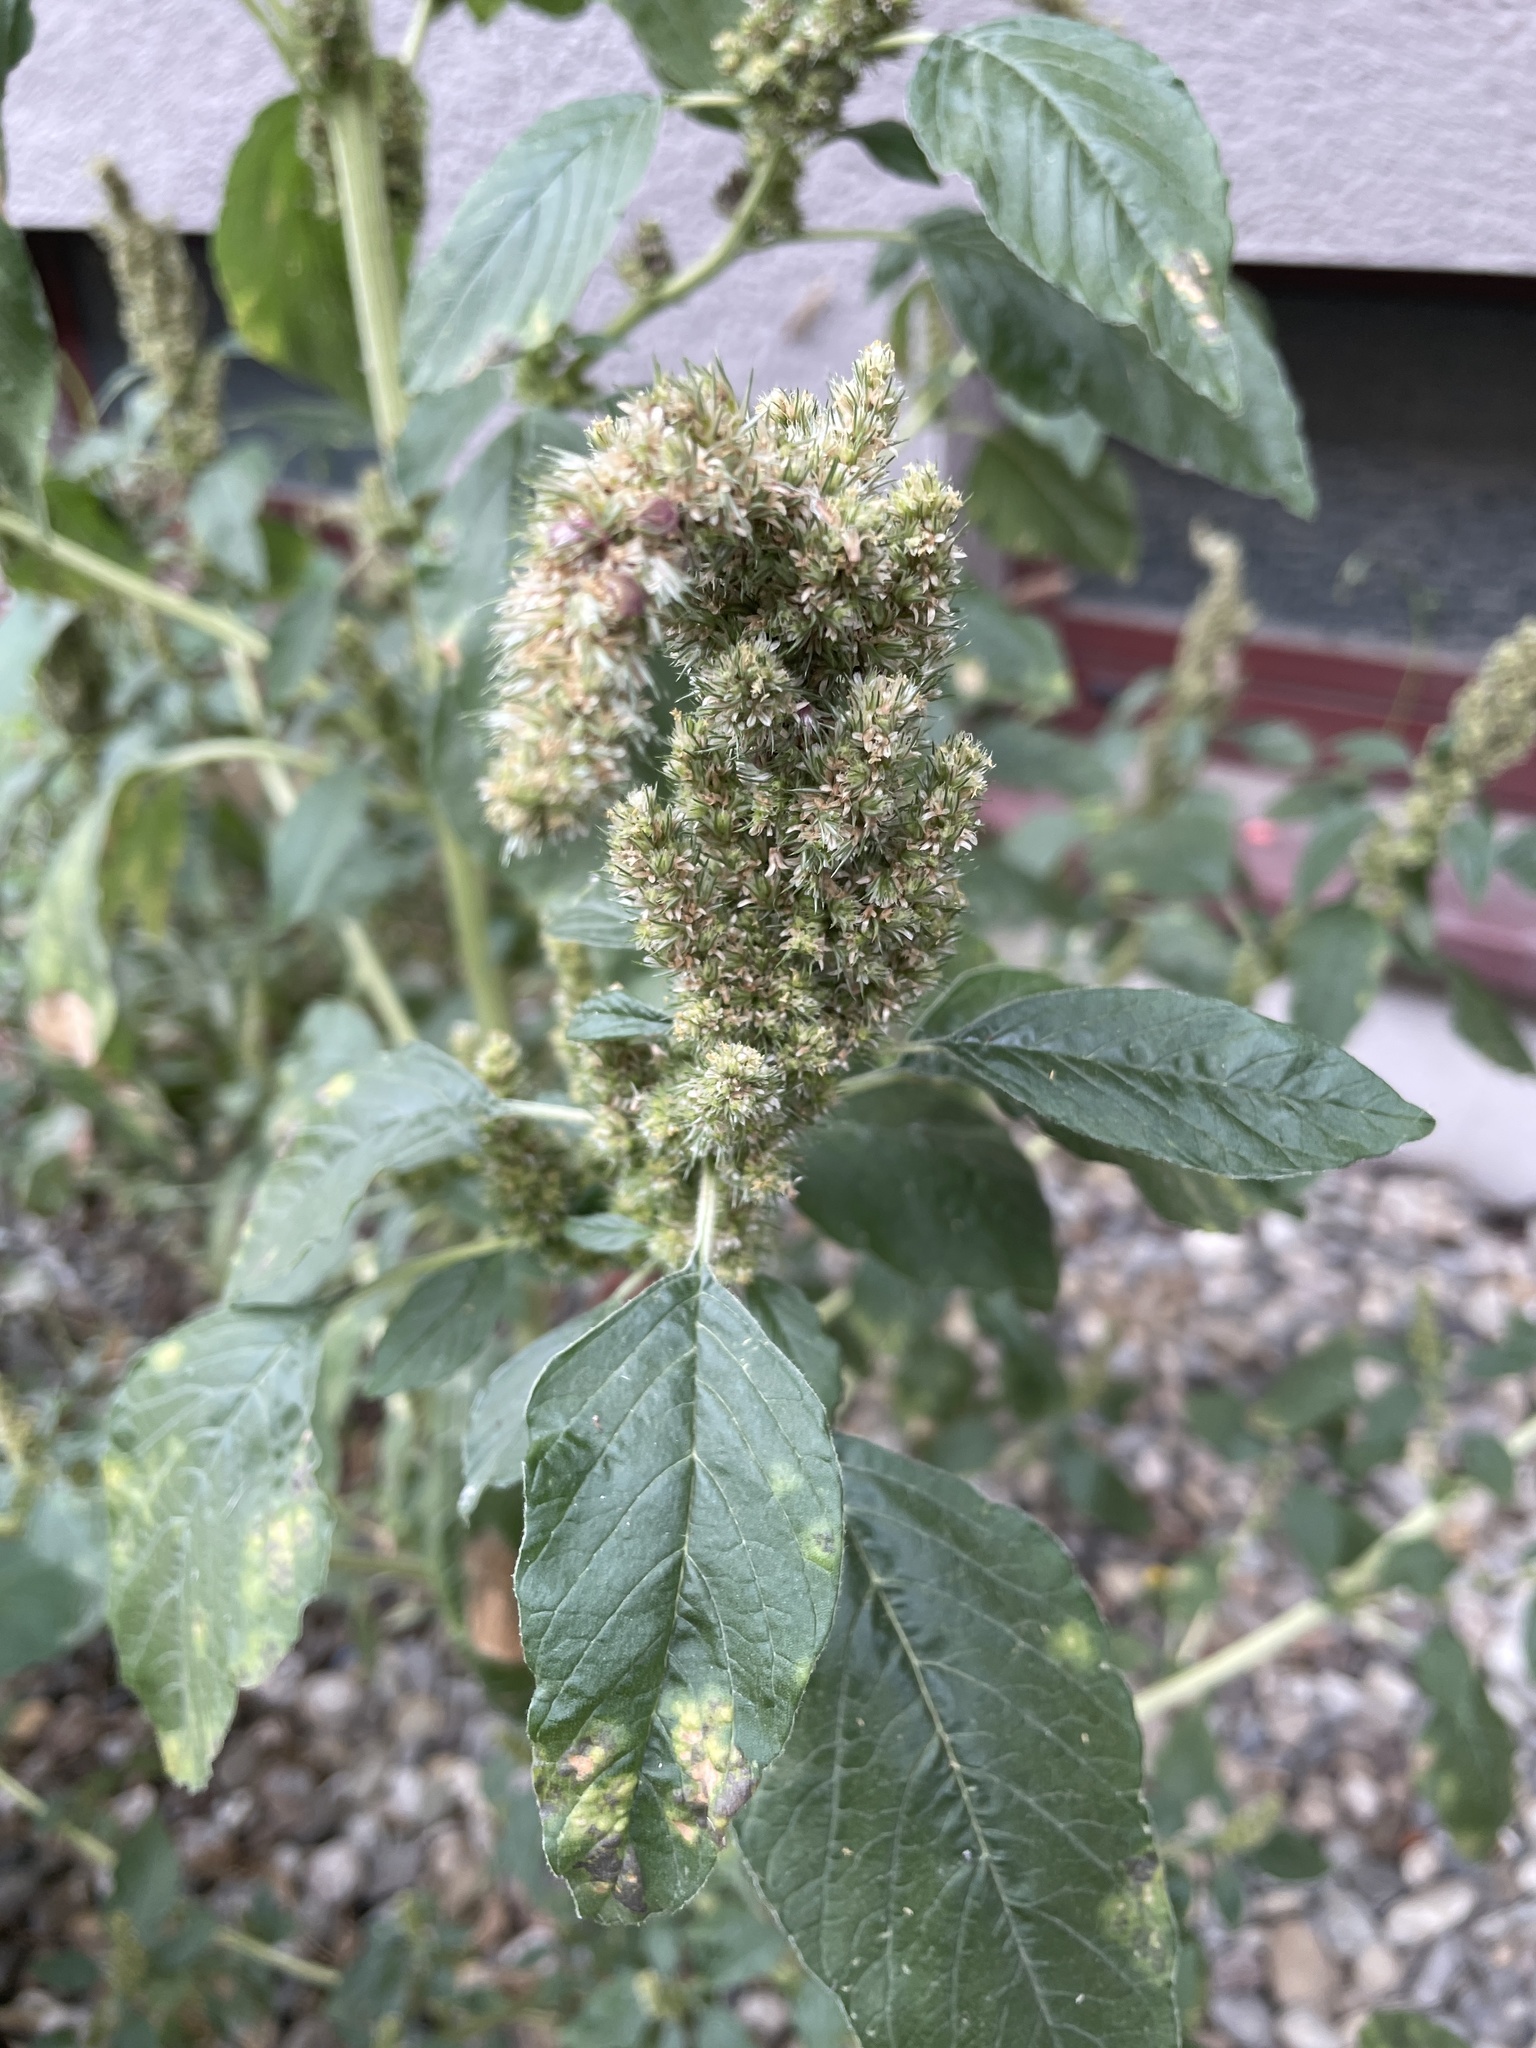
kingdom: Plantae
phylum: Tracheophyta
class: Magnoliopsida
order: Caryophyllales
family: Amaranthaceae
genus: Amaranthus
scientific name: Amaranthus retroflexus
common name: Redroot amaranth
